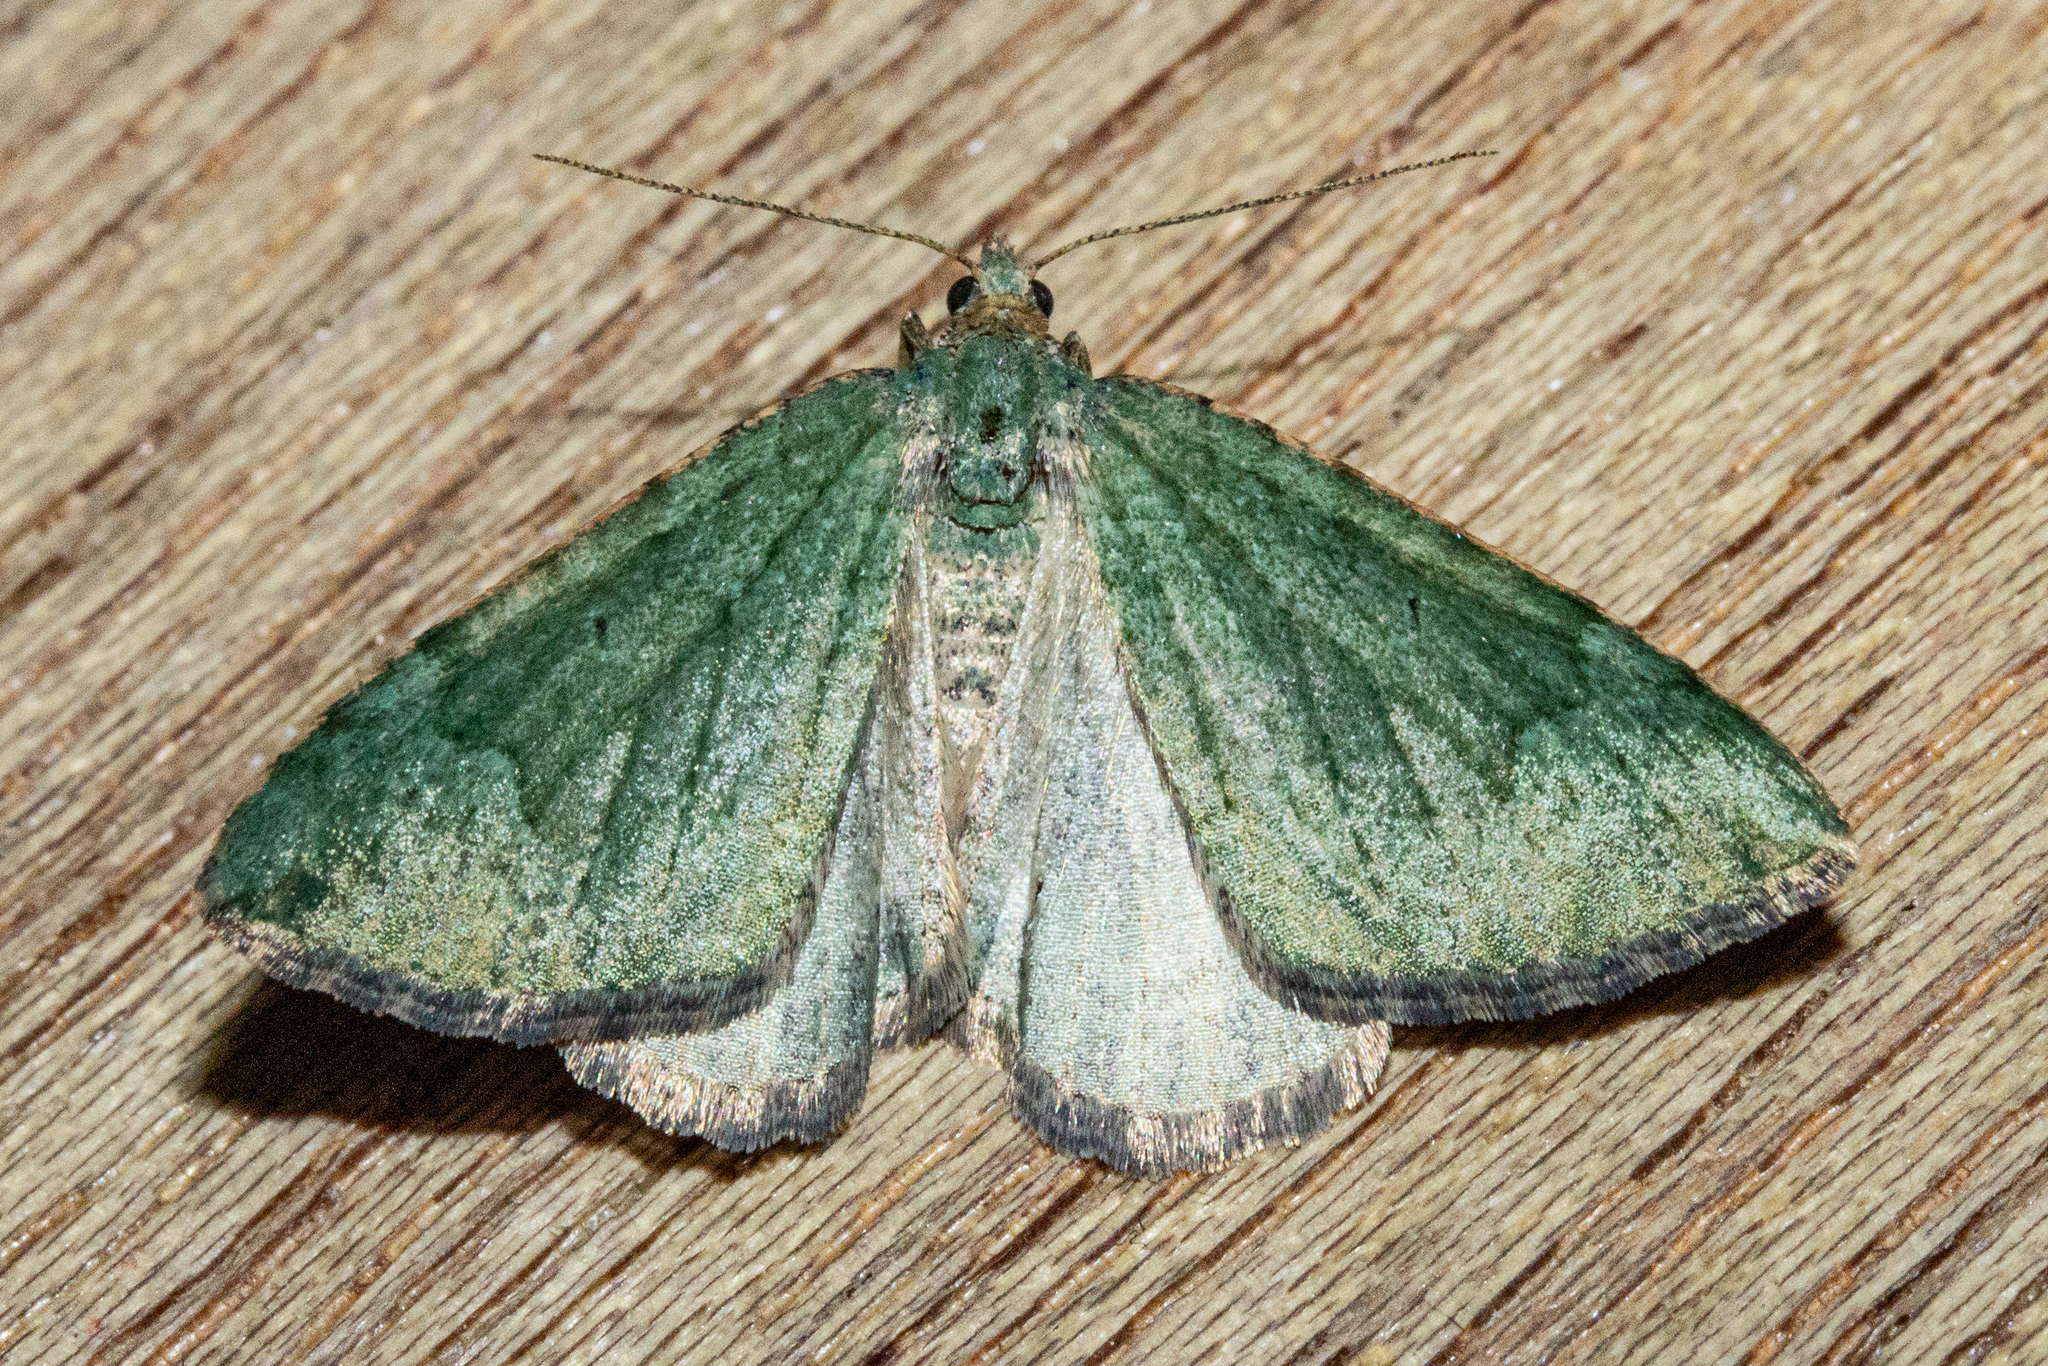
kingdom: Animalia
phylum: Arthropoda
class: Insecta
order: Lepidoptera
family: Geometridae
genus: Epyaxa
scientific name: Epyaxa rosearia
